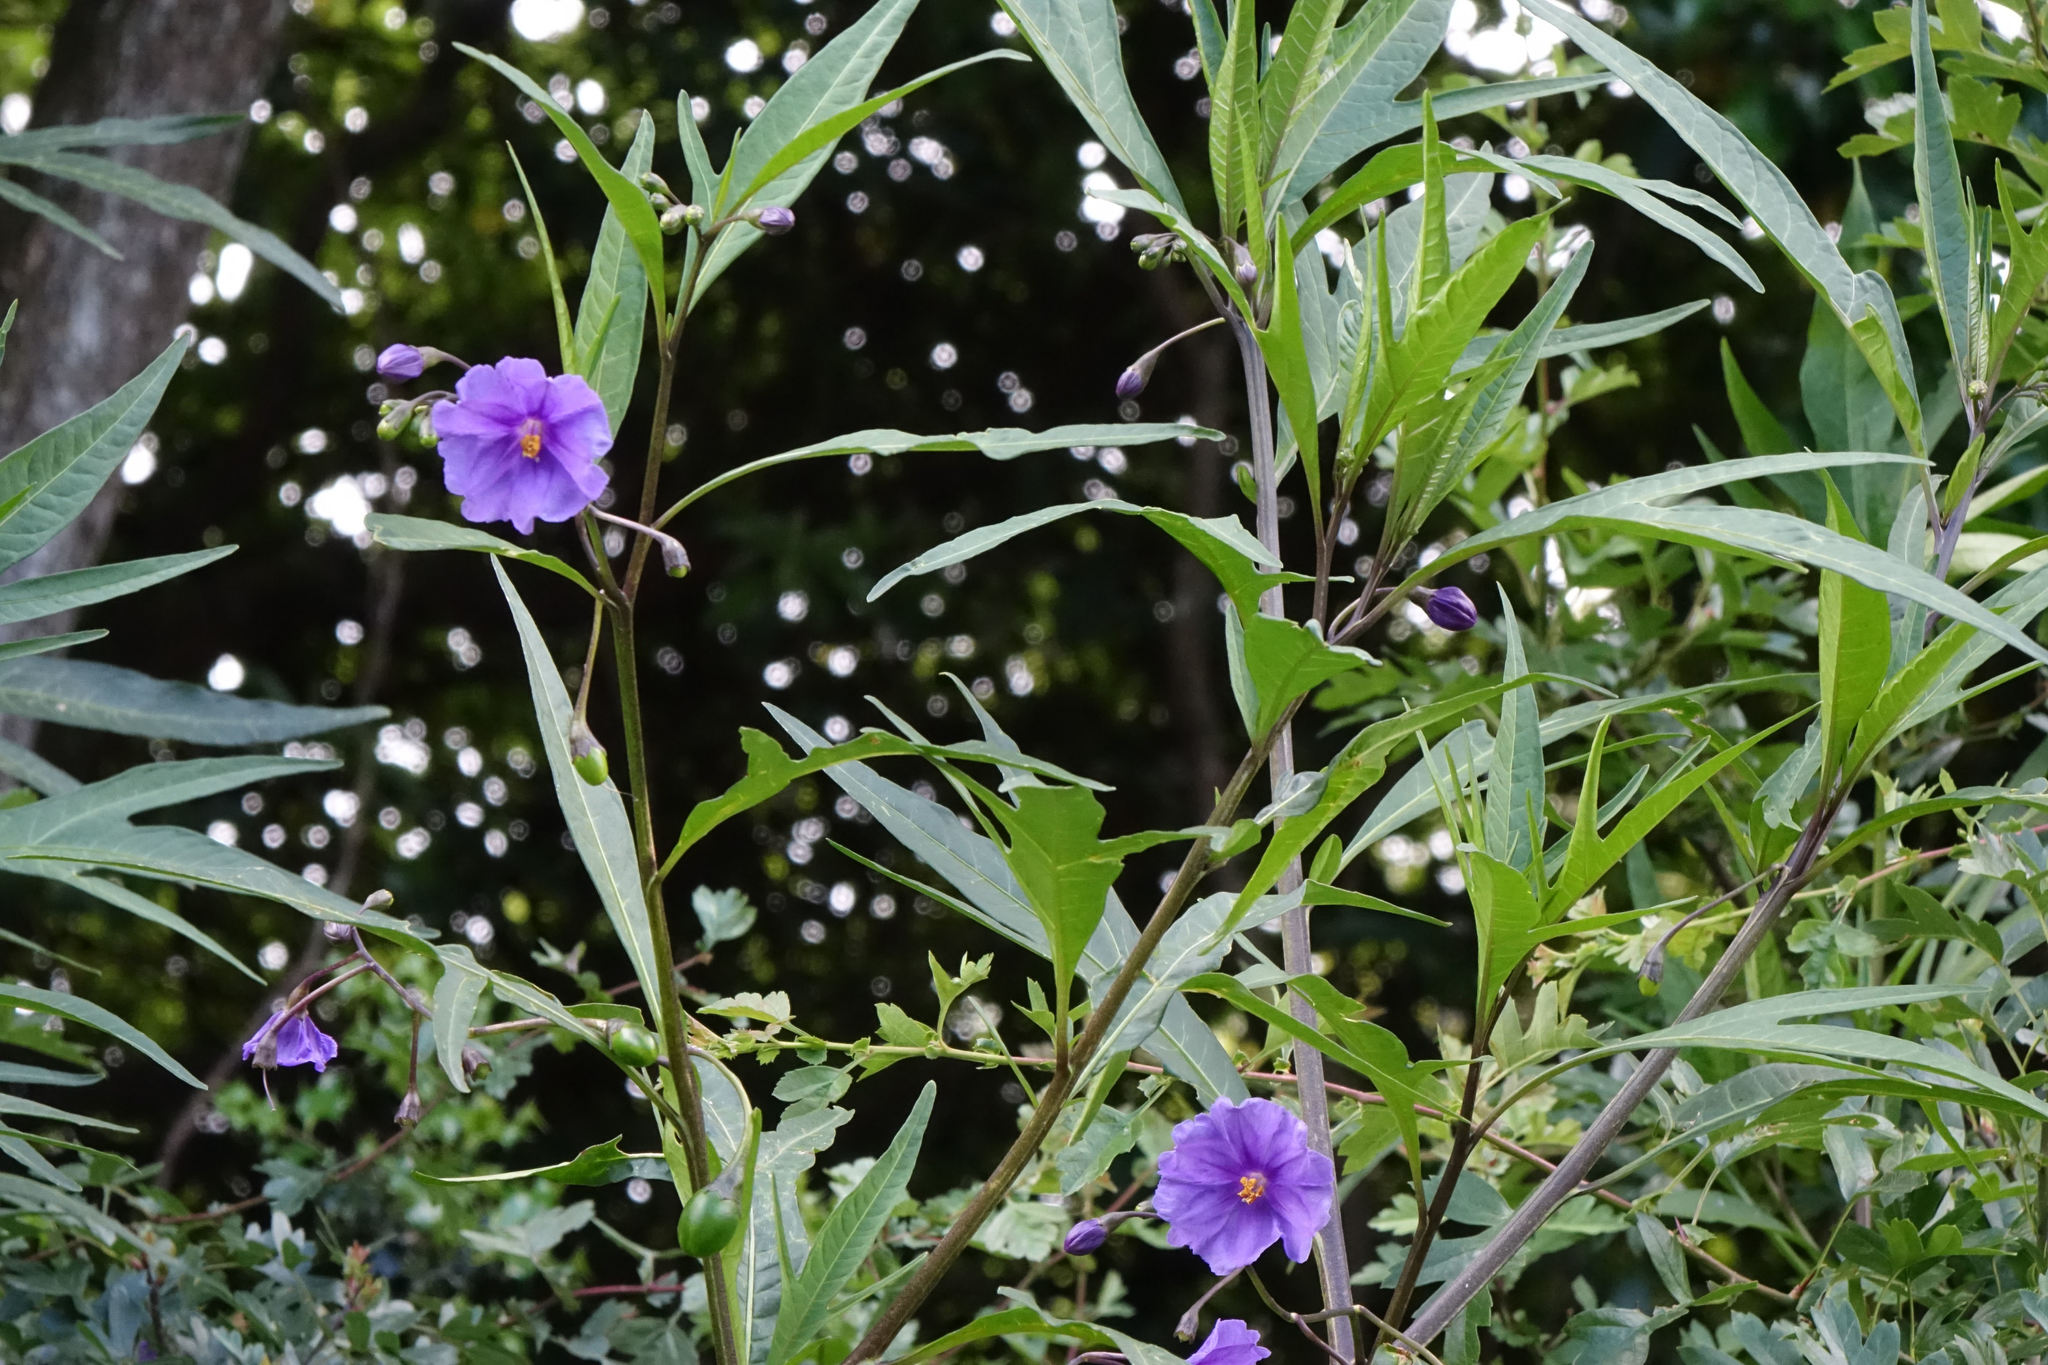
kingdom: Plantae
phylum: Tracheophyta
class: Magnoliopsida
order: Solanales
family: Solanaceae
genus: Solanum
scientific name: Solanum laciniatum
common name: Kangaroo-apple
